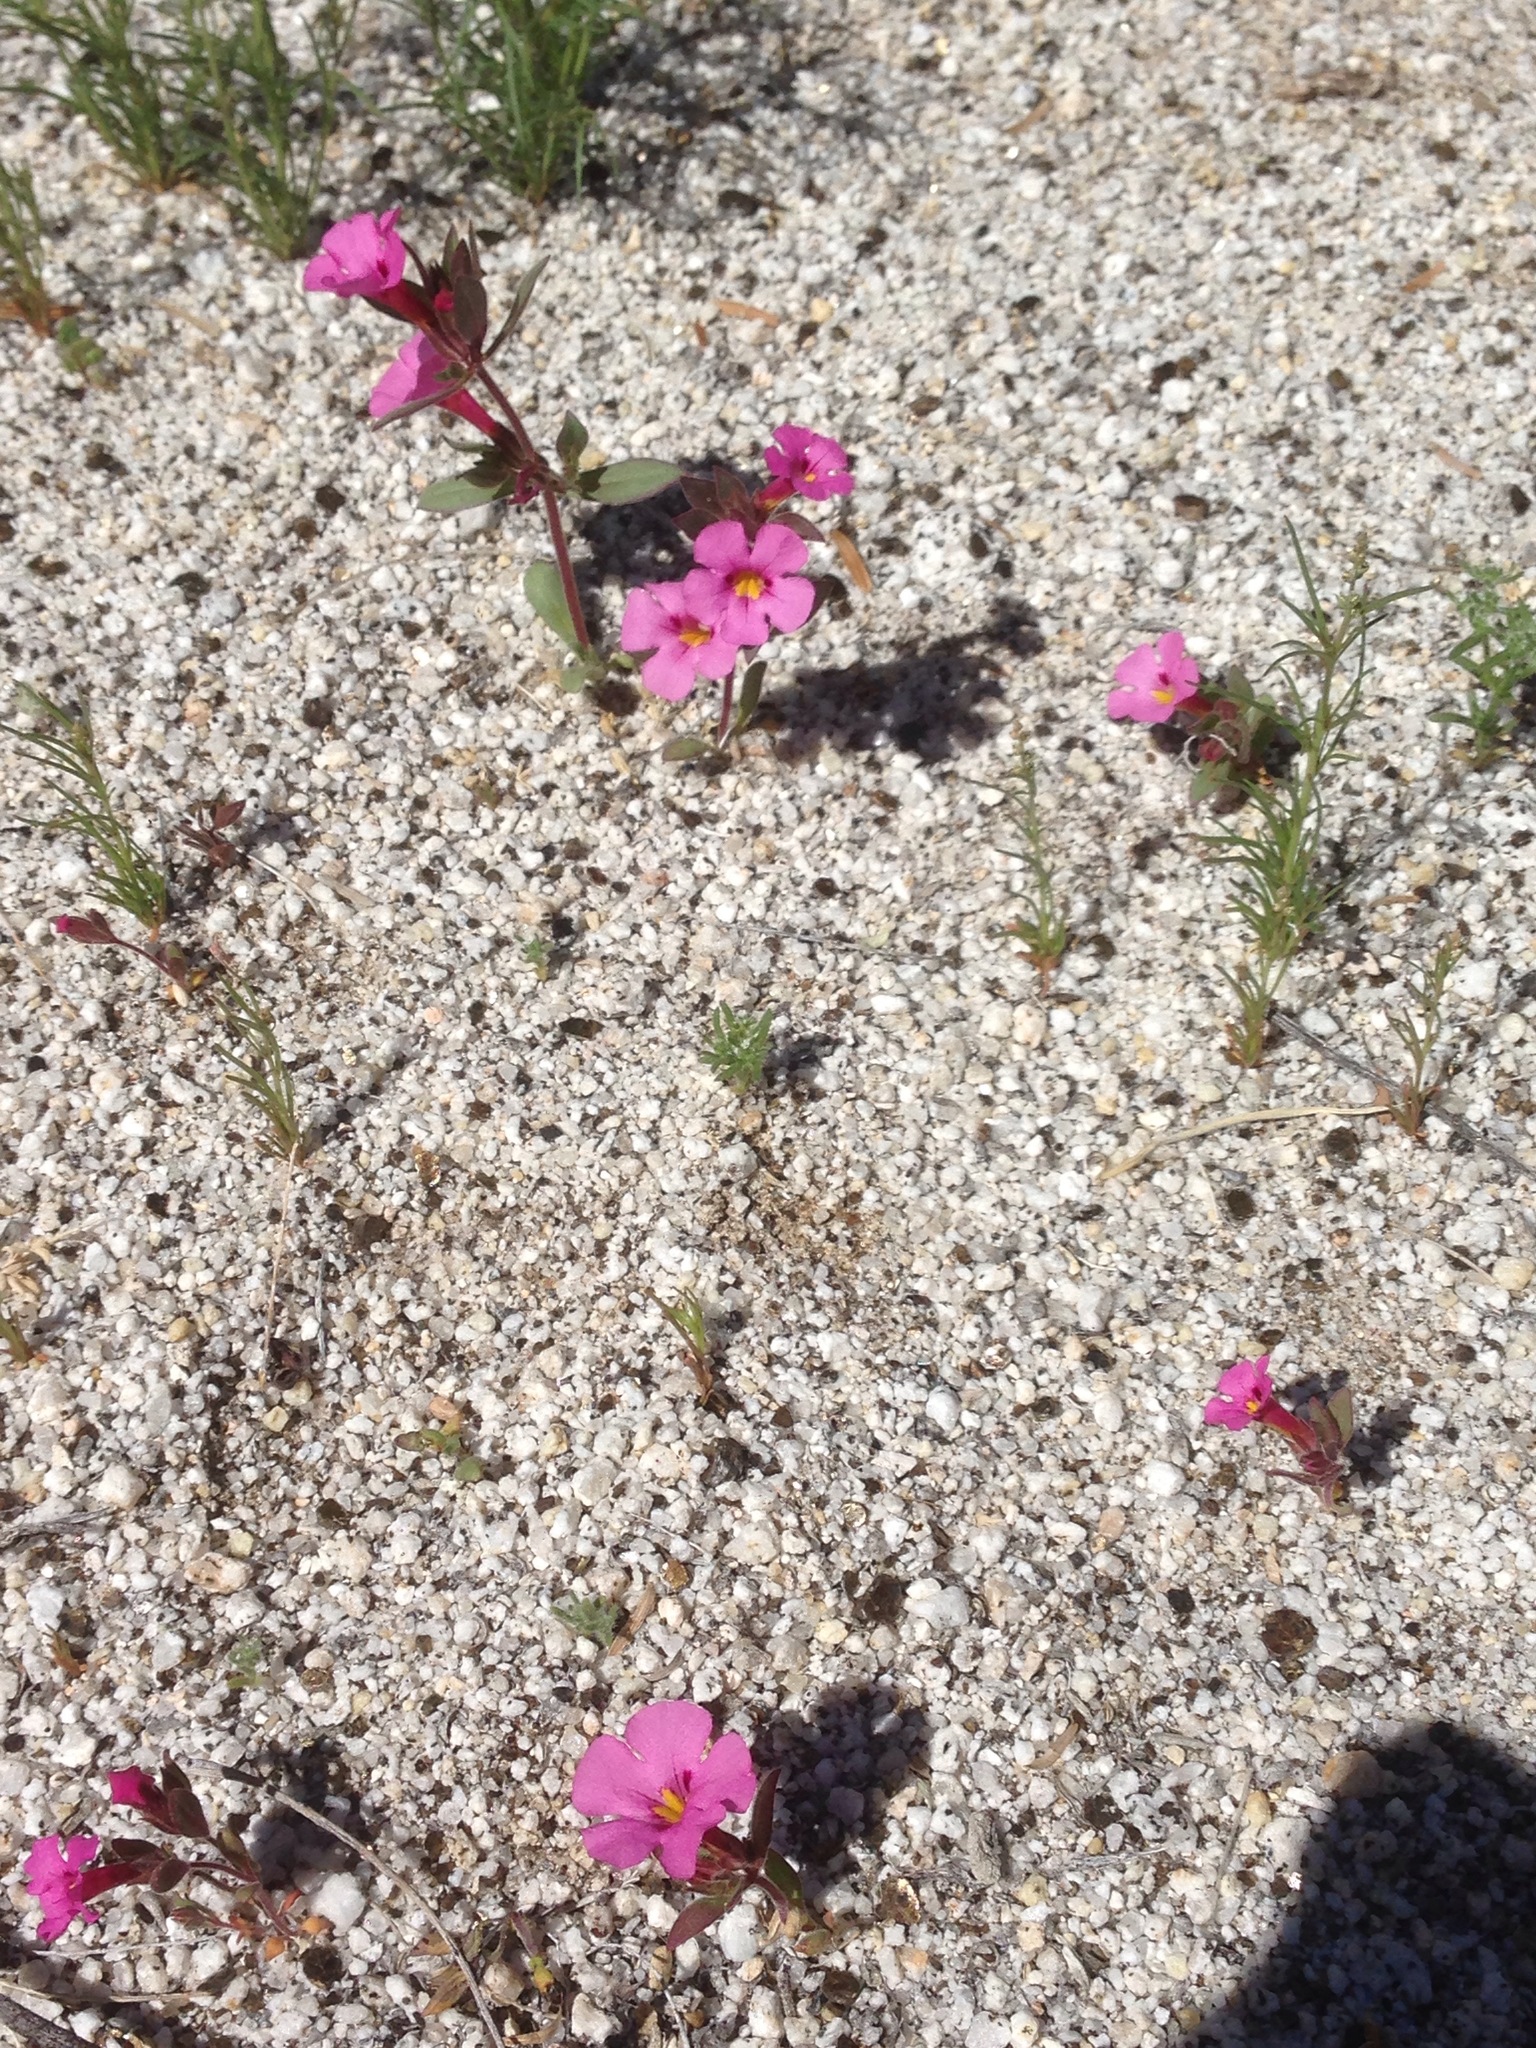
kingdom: Plantae
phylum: Tracheophyta
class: Magnoliopsida
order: Lamiales
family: Phrymaceae
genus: Diplacus
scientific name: Diplacus bigelovii
